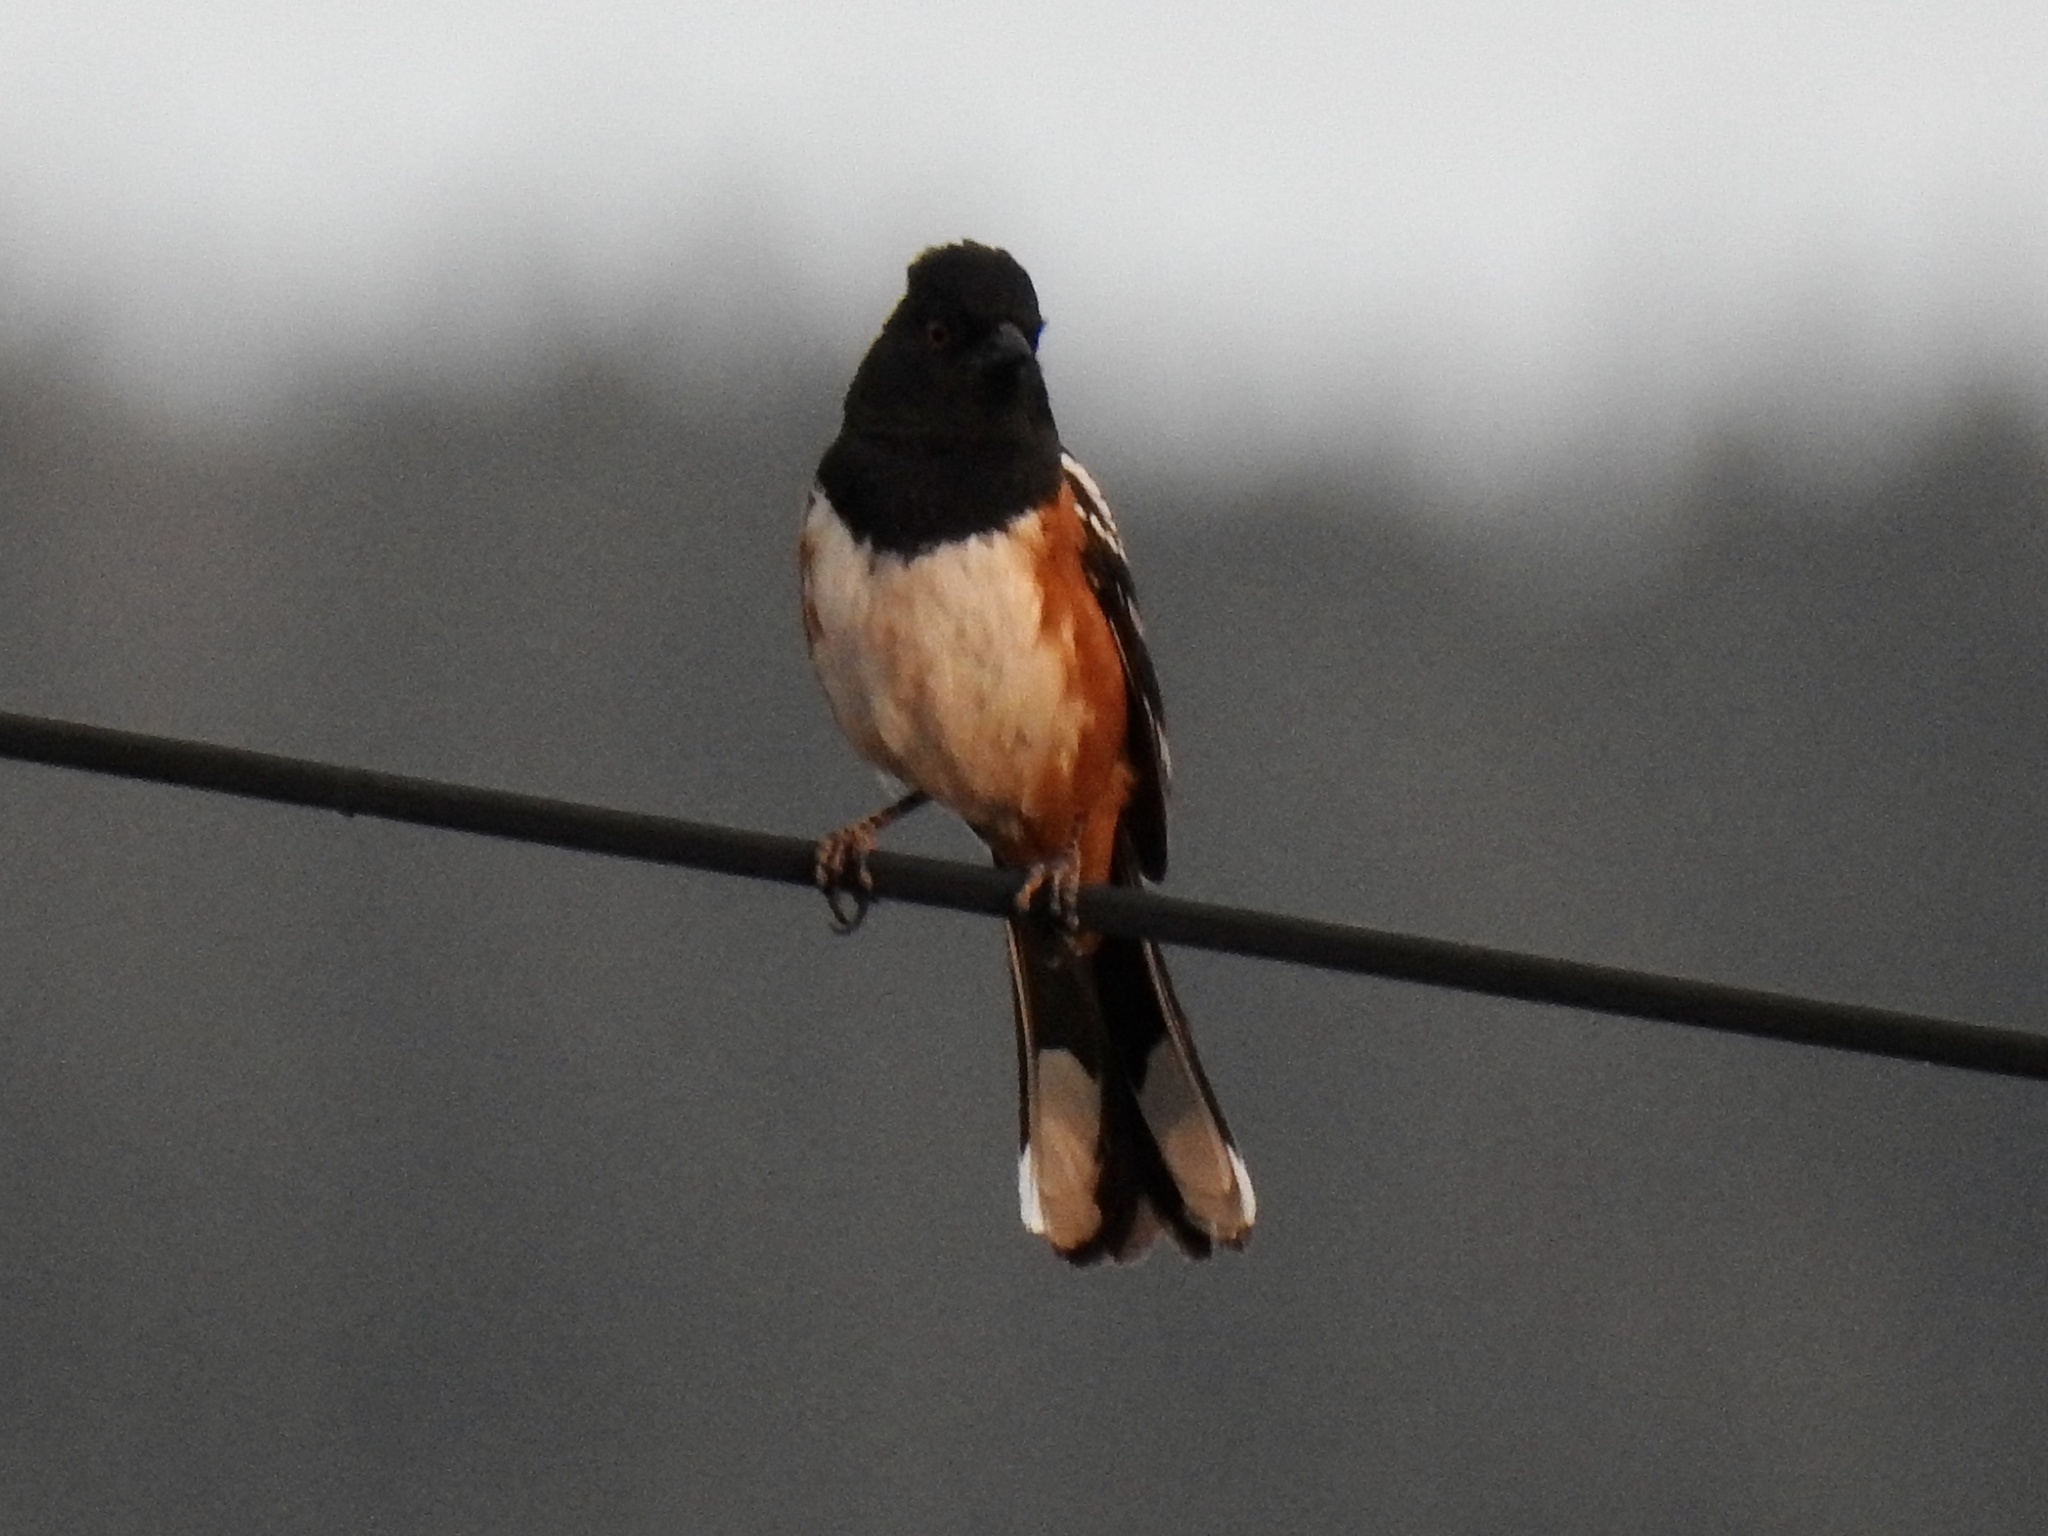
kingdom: Animalia
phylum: Chordata
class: Aves
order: Passeriformes
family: Passerellidae
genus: Pipilo
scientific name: Pipilo maculatus
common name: Spotted towhee
